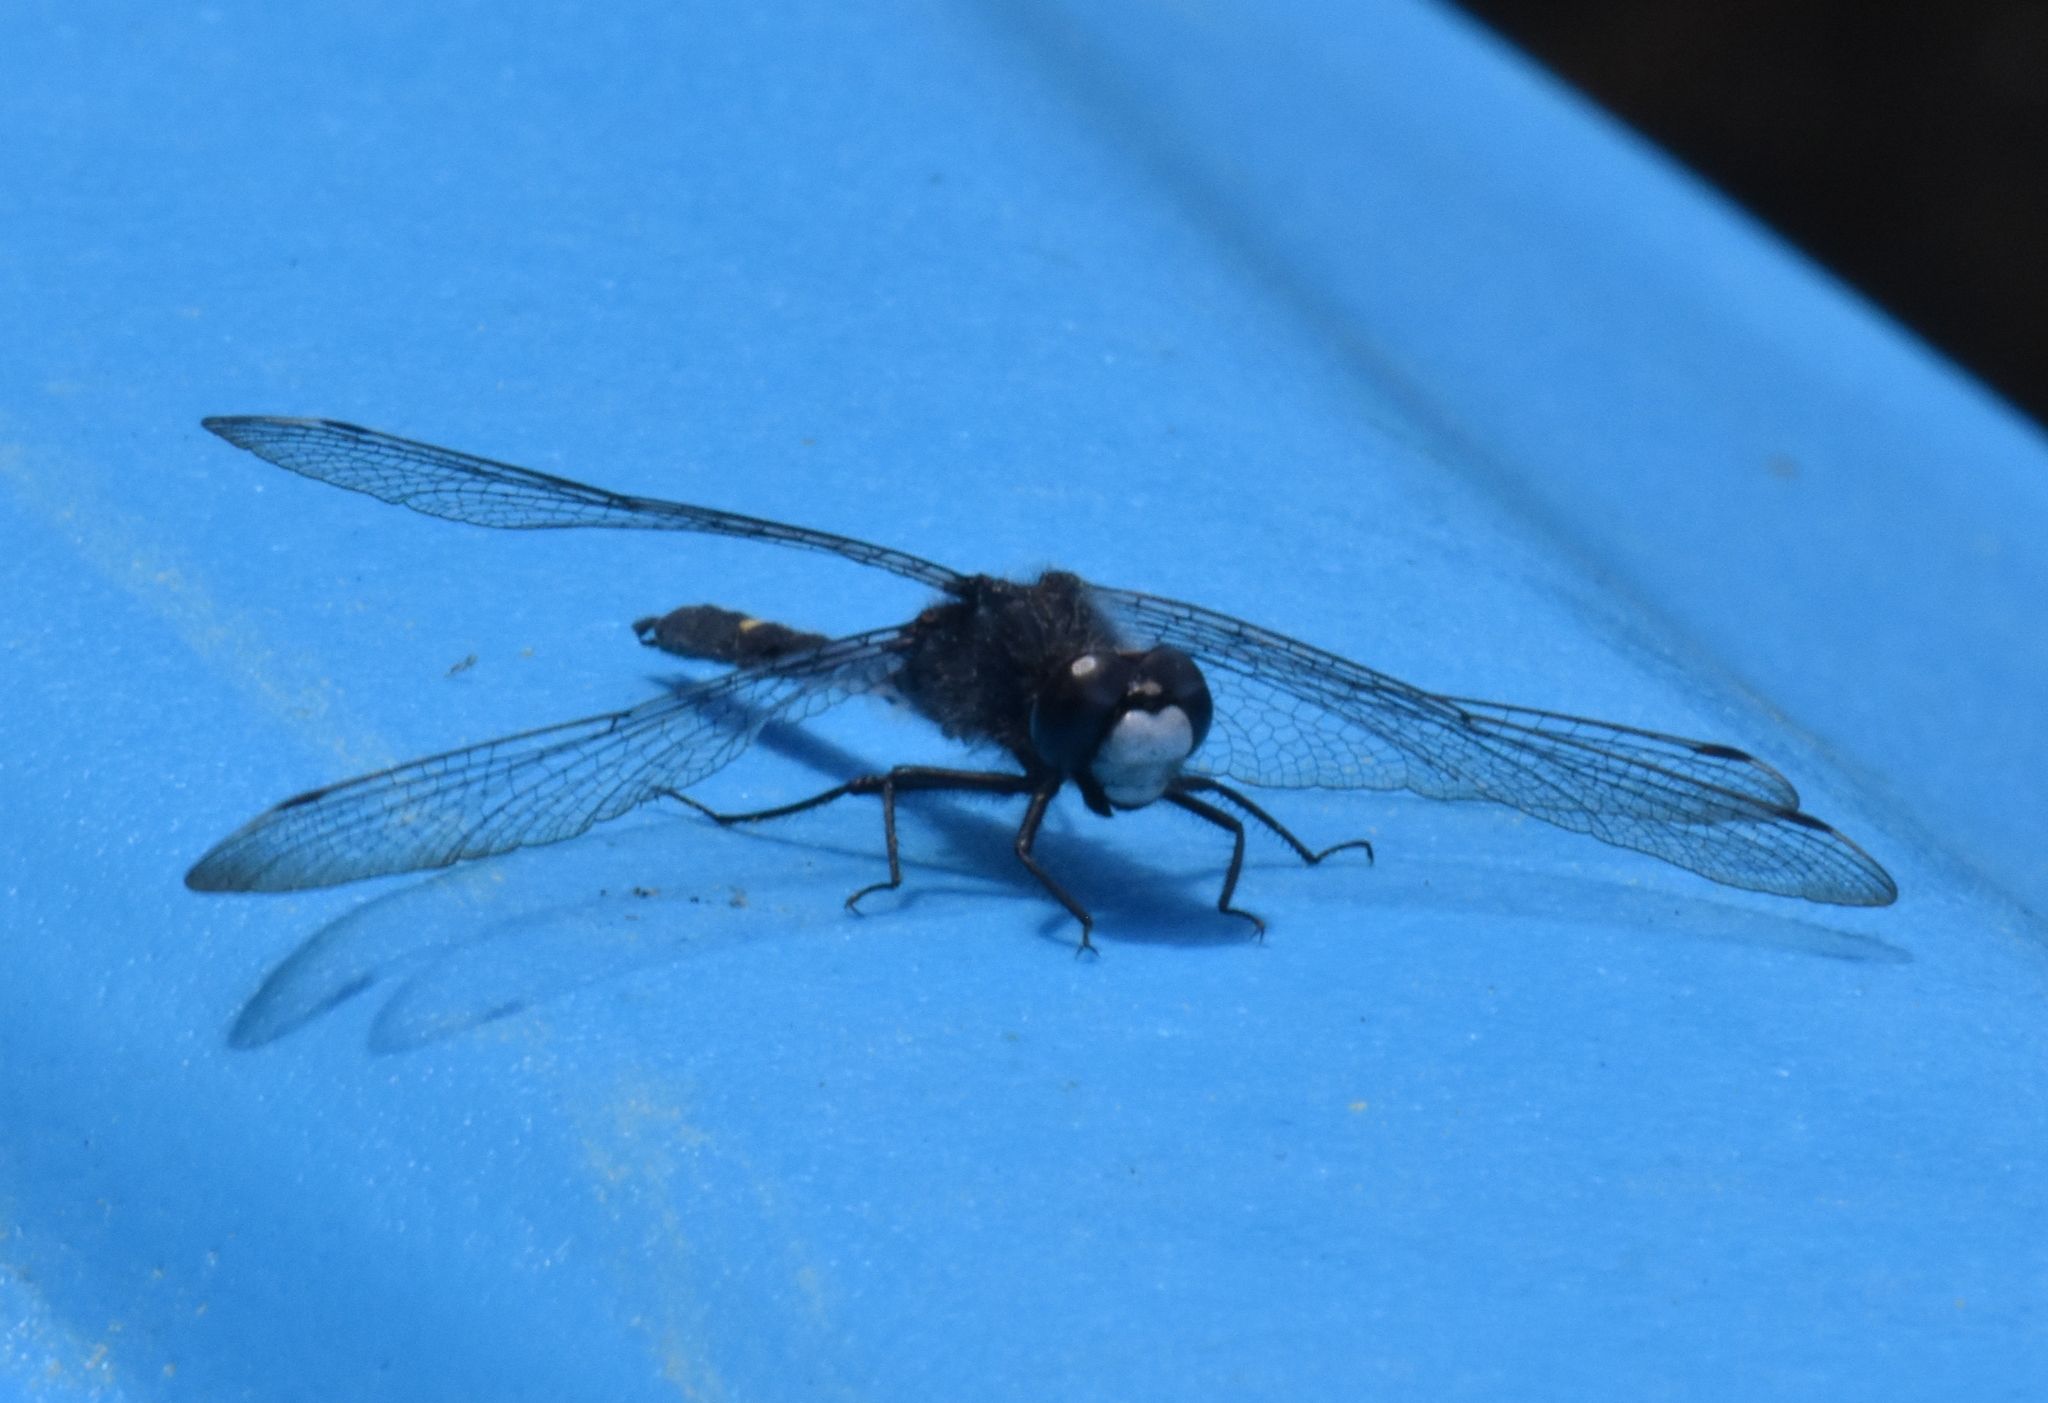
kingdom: Animalia
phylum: Arthropoda
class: Insecta
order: Odonata
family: Libellulidae
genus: Leucorrhinia
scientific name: Leucorrhinia intacta
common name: Dot-tailed whiteface
